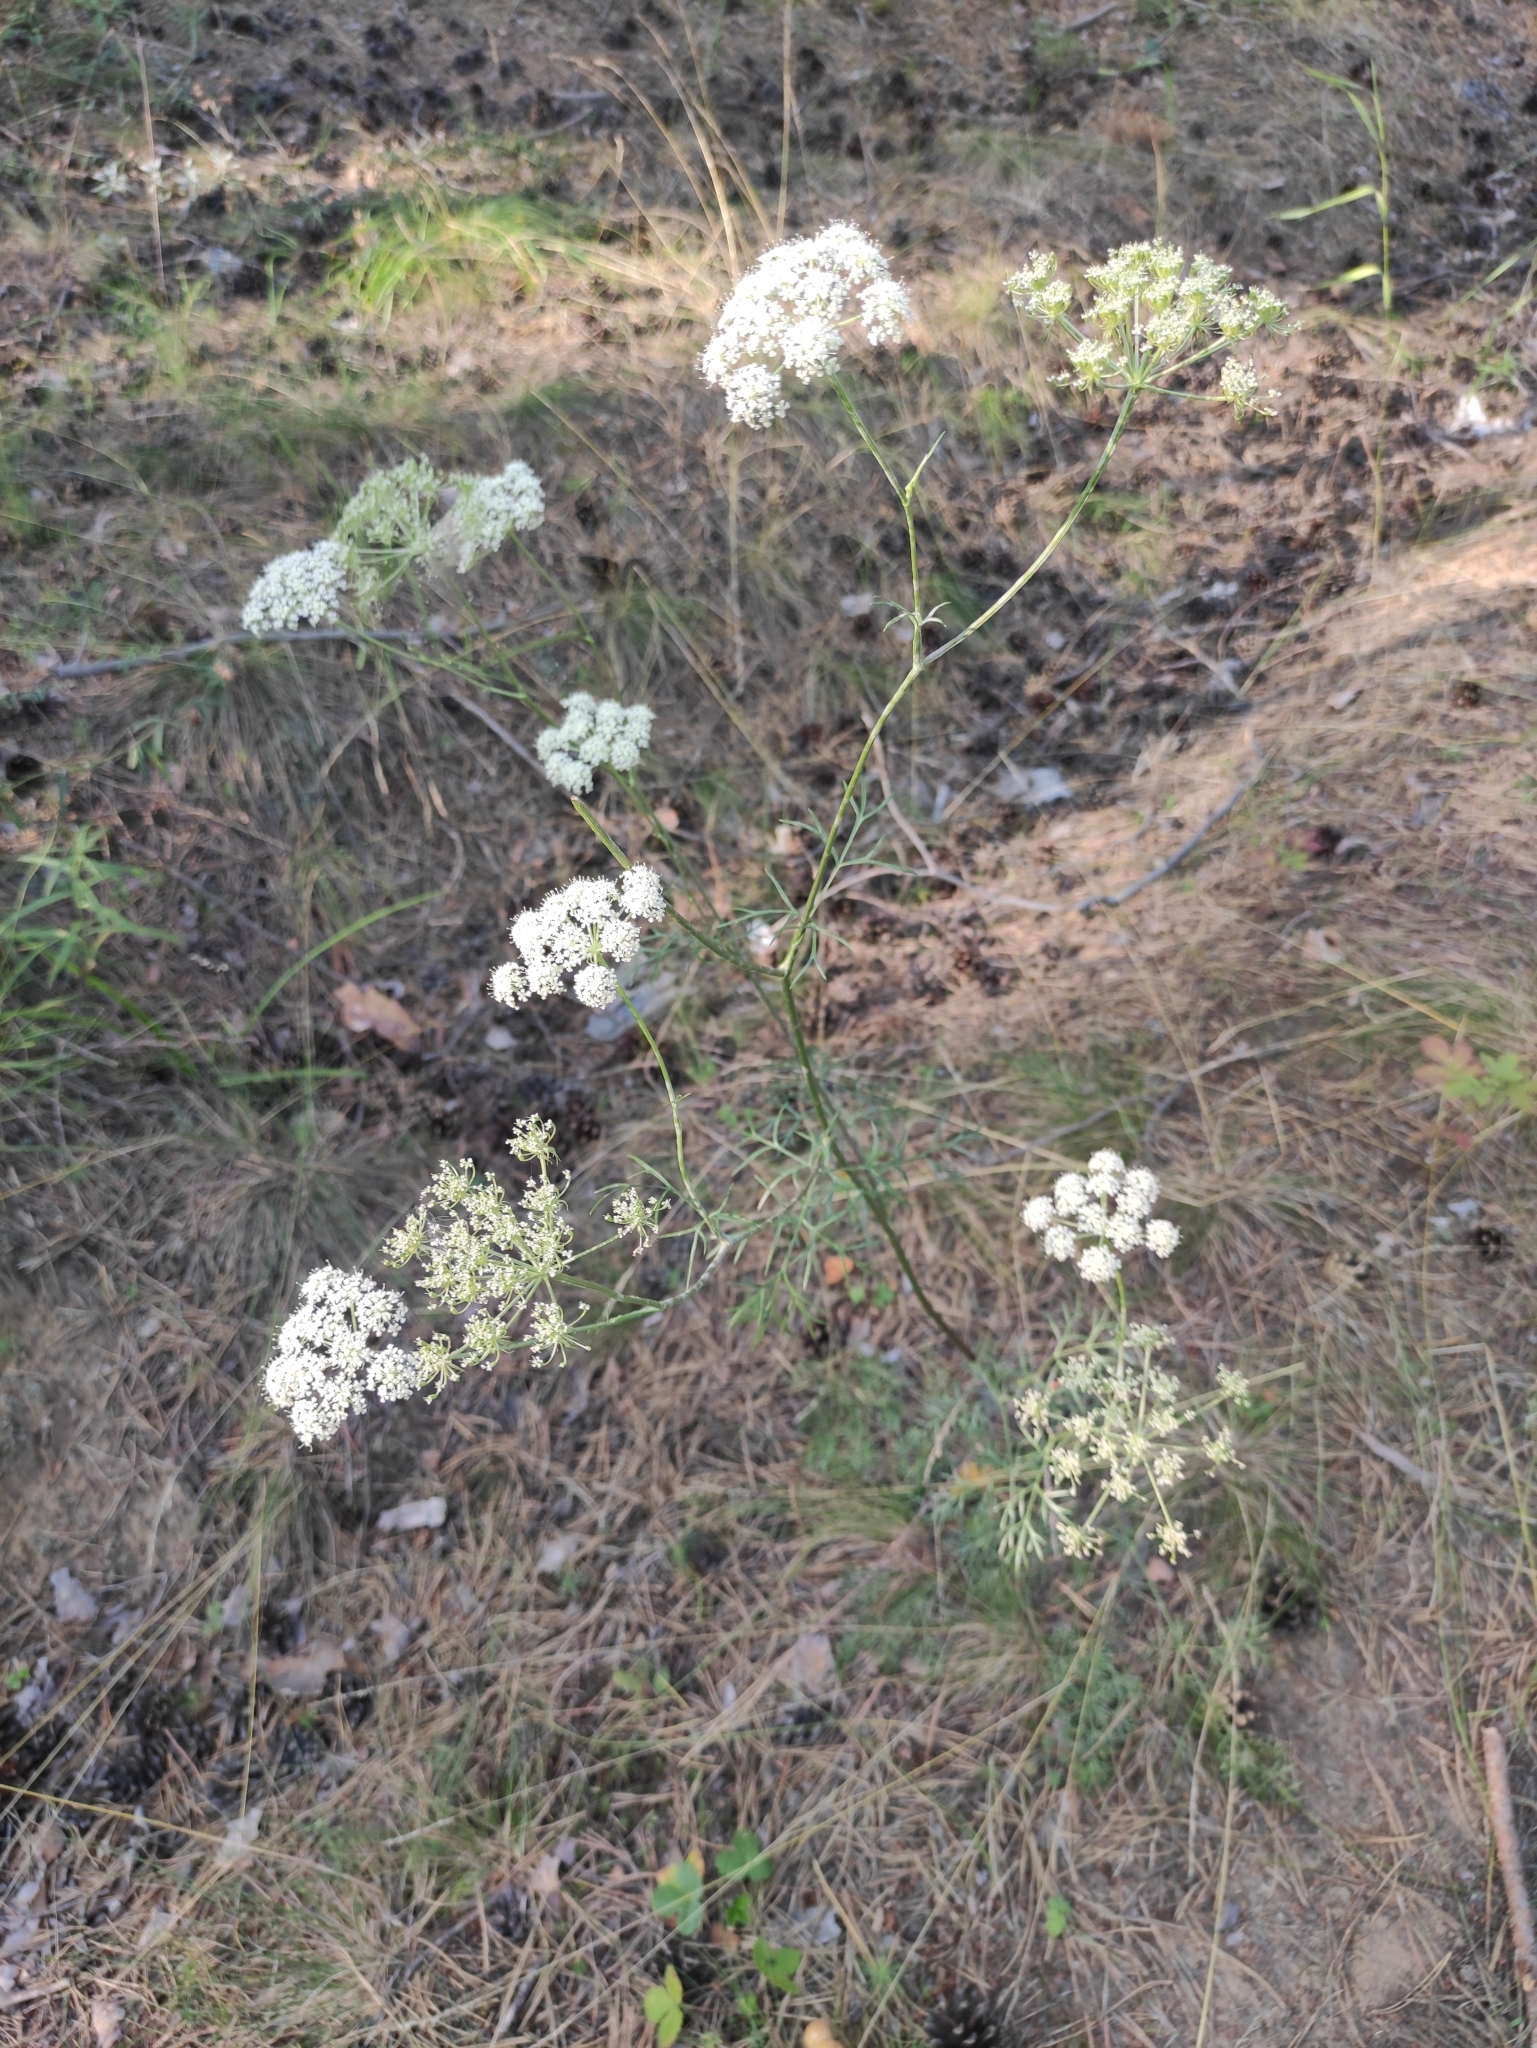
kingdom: Plantae
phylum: Tracheophyta
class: Magnoliopsida
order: Apiales
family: Apiaceae
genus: Kitagawia
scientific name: Kitagawia baicalensis
